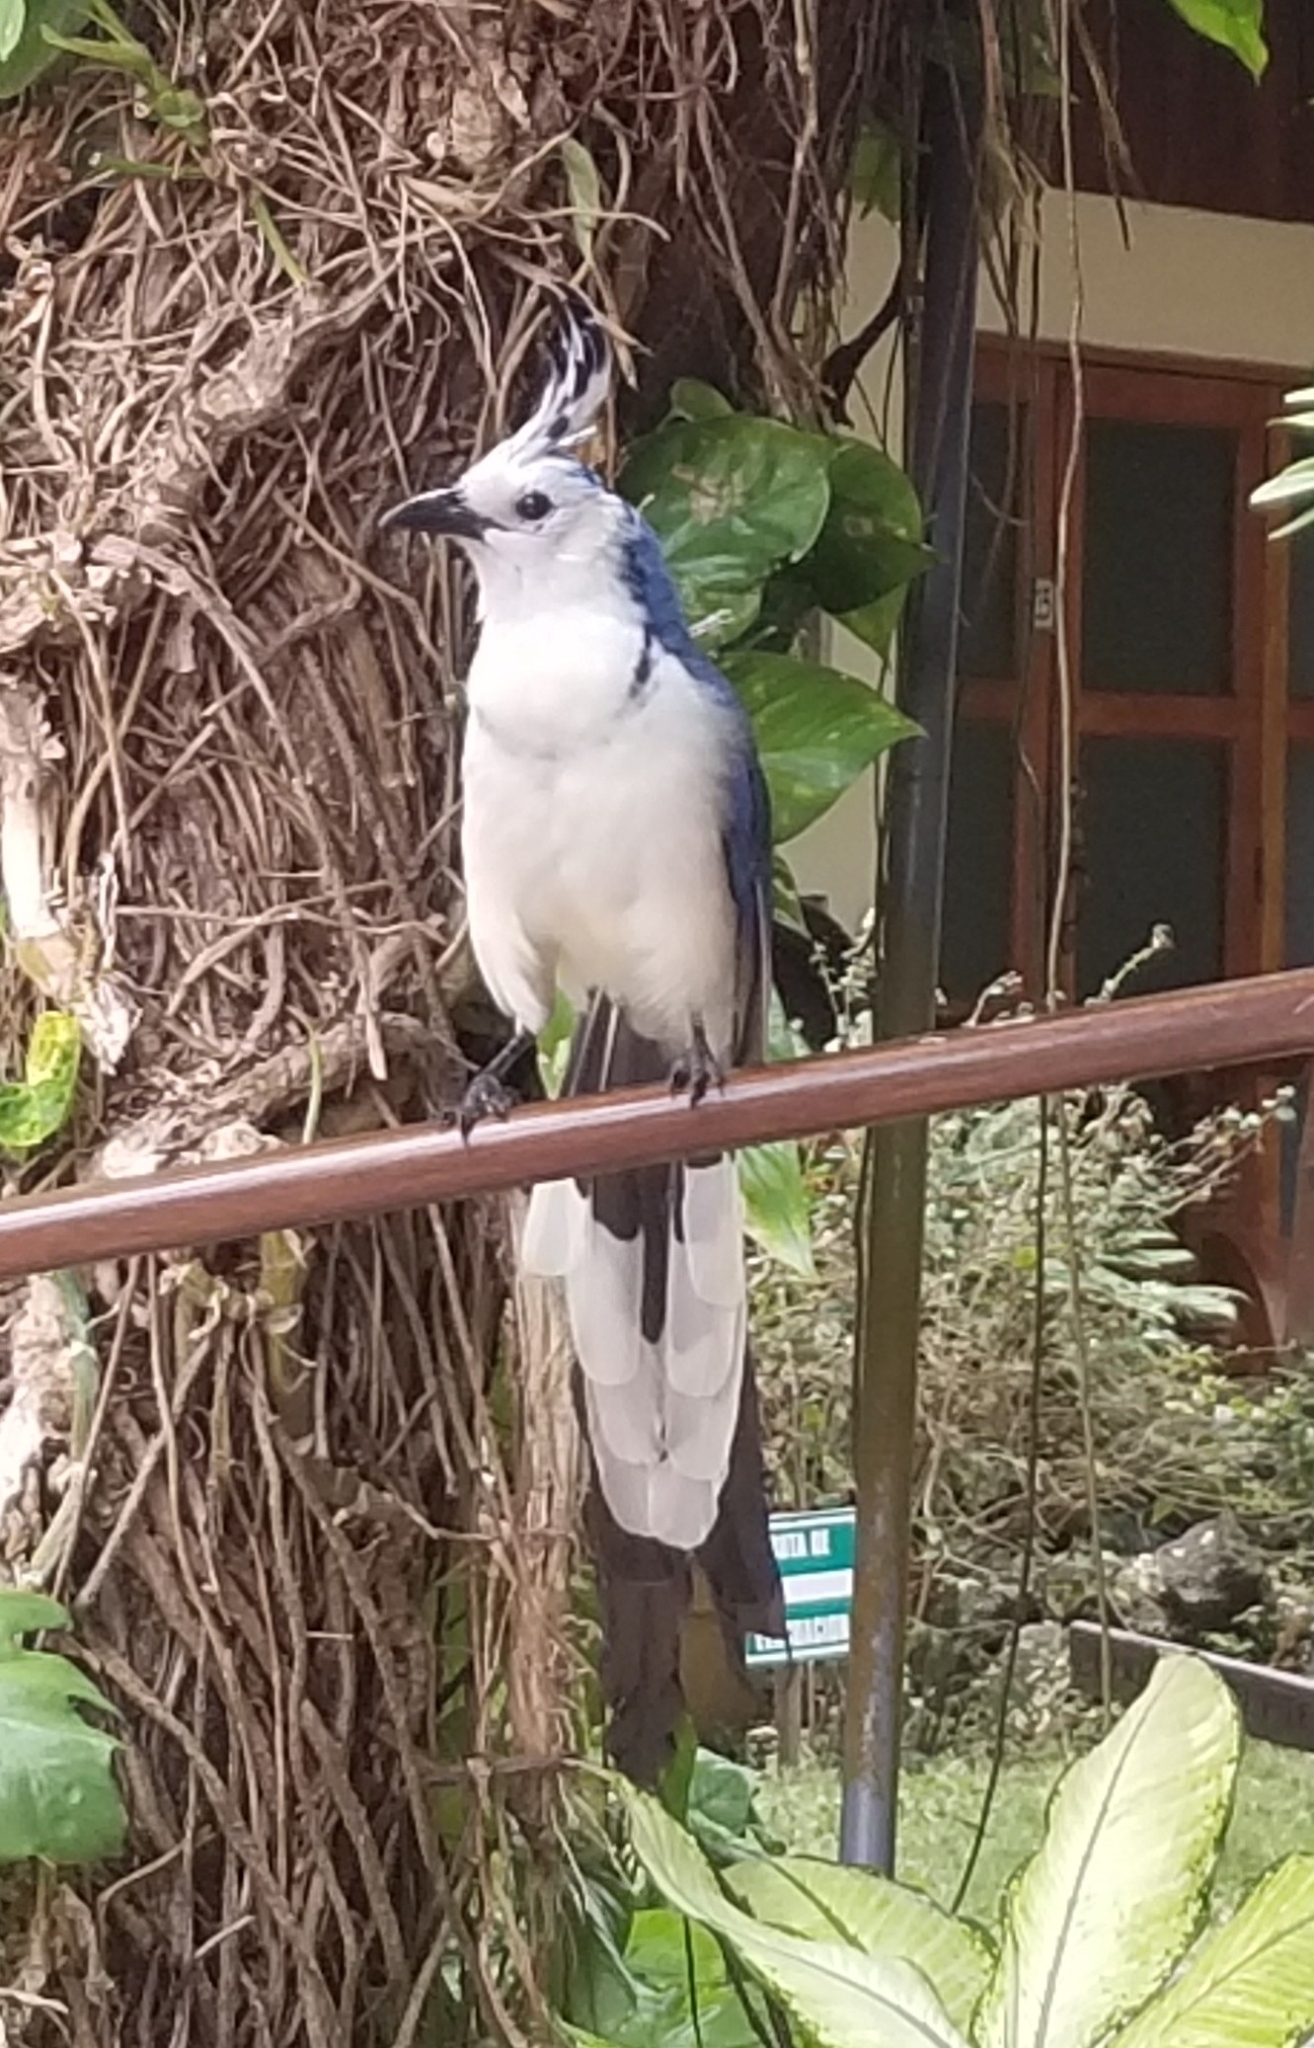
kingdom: Animalia
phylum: Chordata
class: Aves
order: Passeriformes
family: Corvidae
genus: Calocitta
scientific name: Calocitta formosa
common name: White-throated magpie-jay
